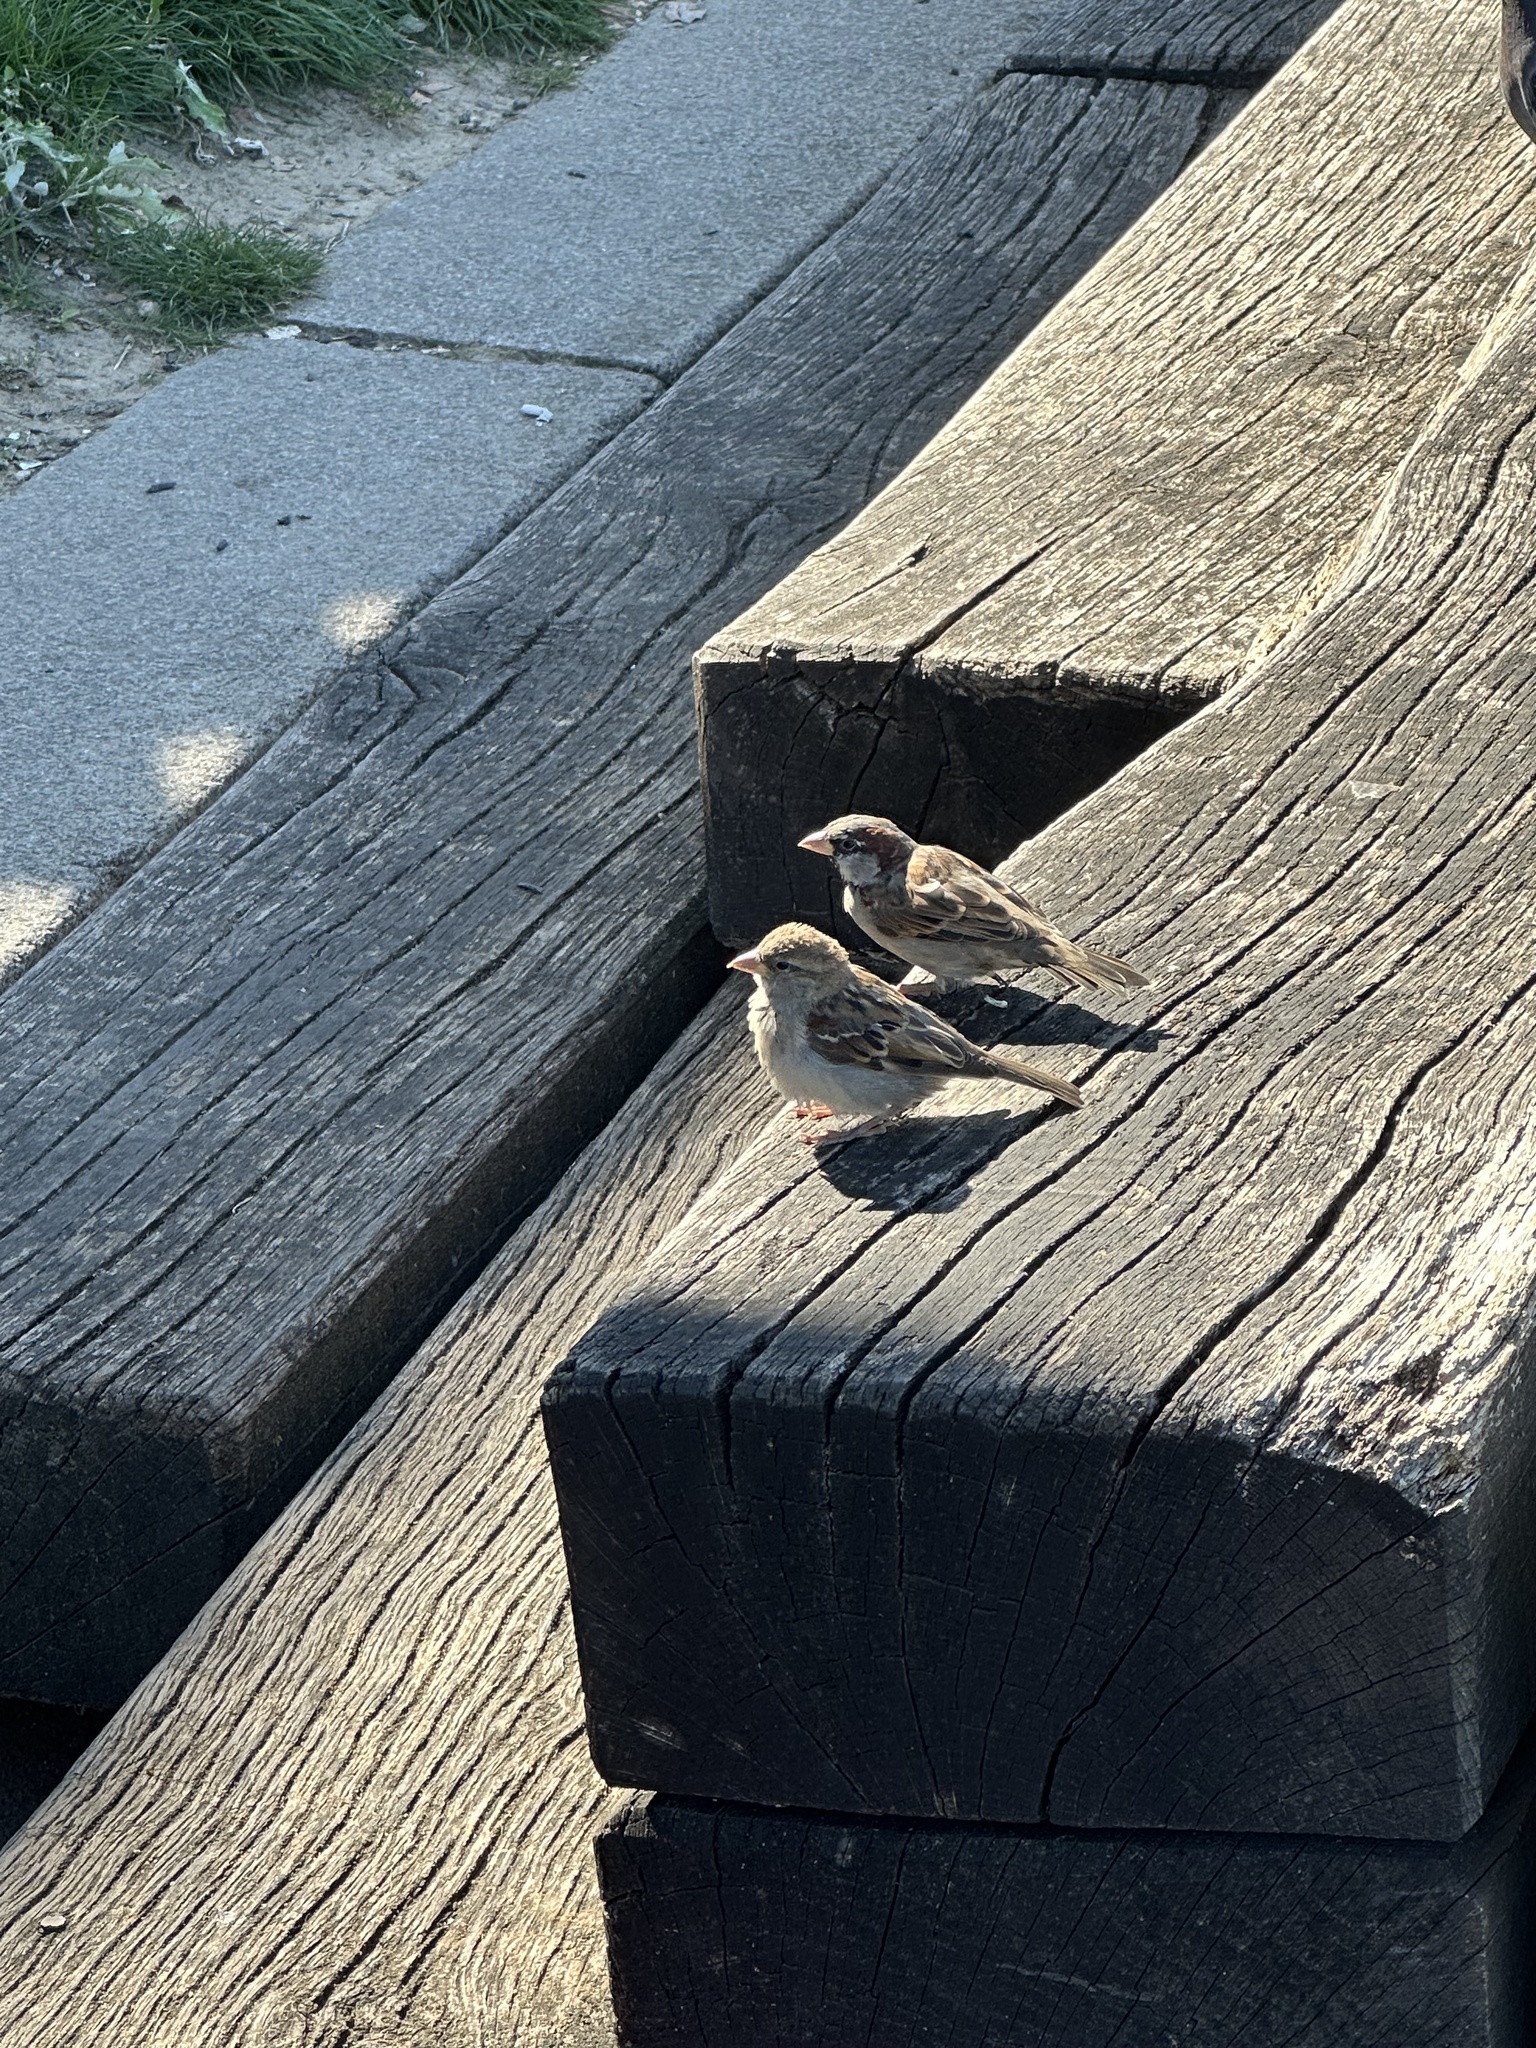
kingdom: Animalia
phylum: Chordata
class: Aves
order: Passeriformes
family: Passeridae
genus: Passer
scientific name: Passer domesticus
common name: House sparrow
